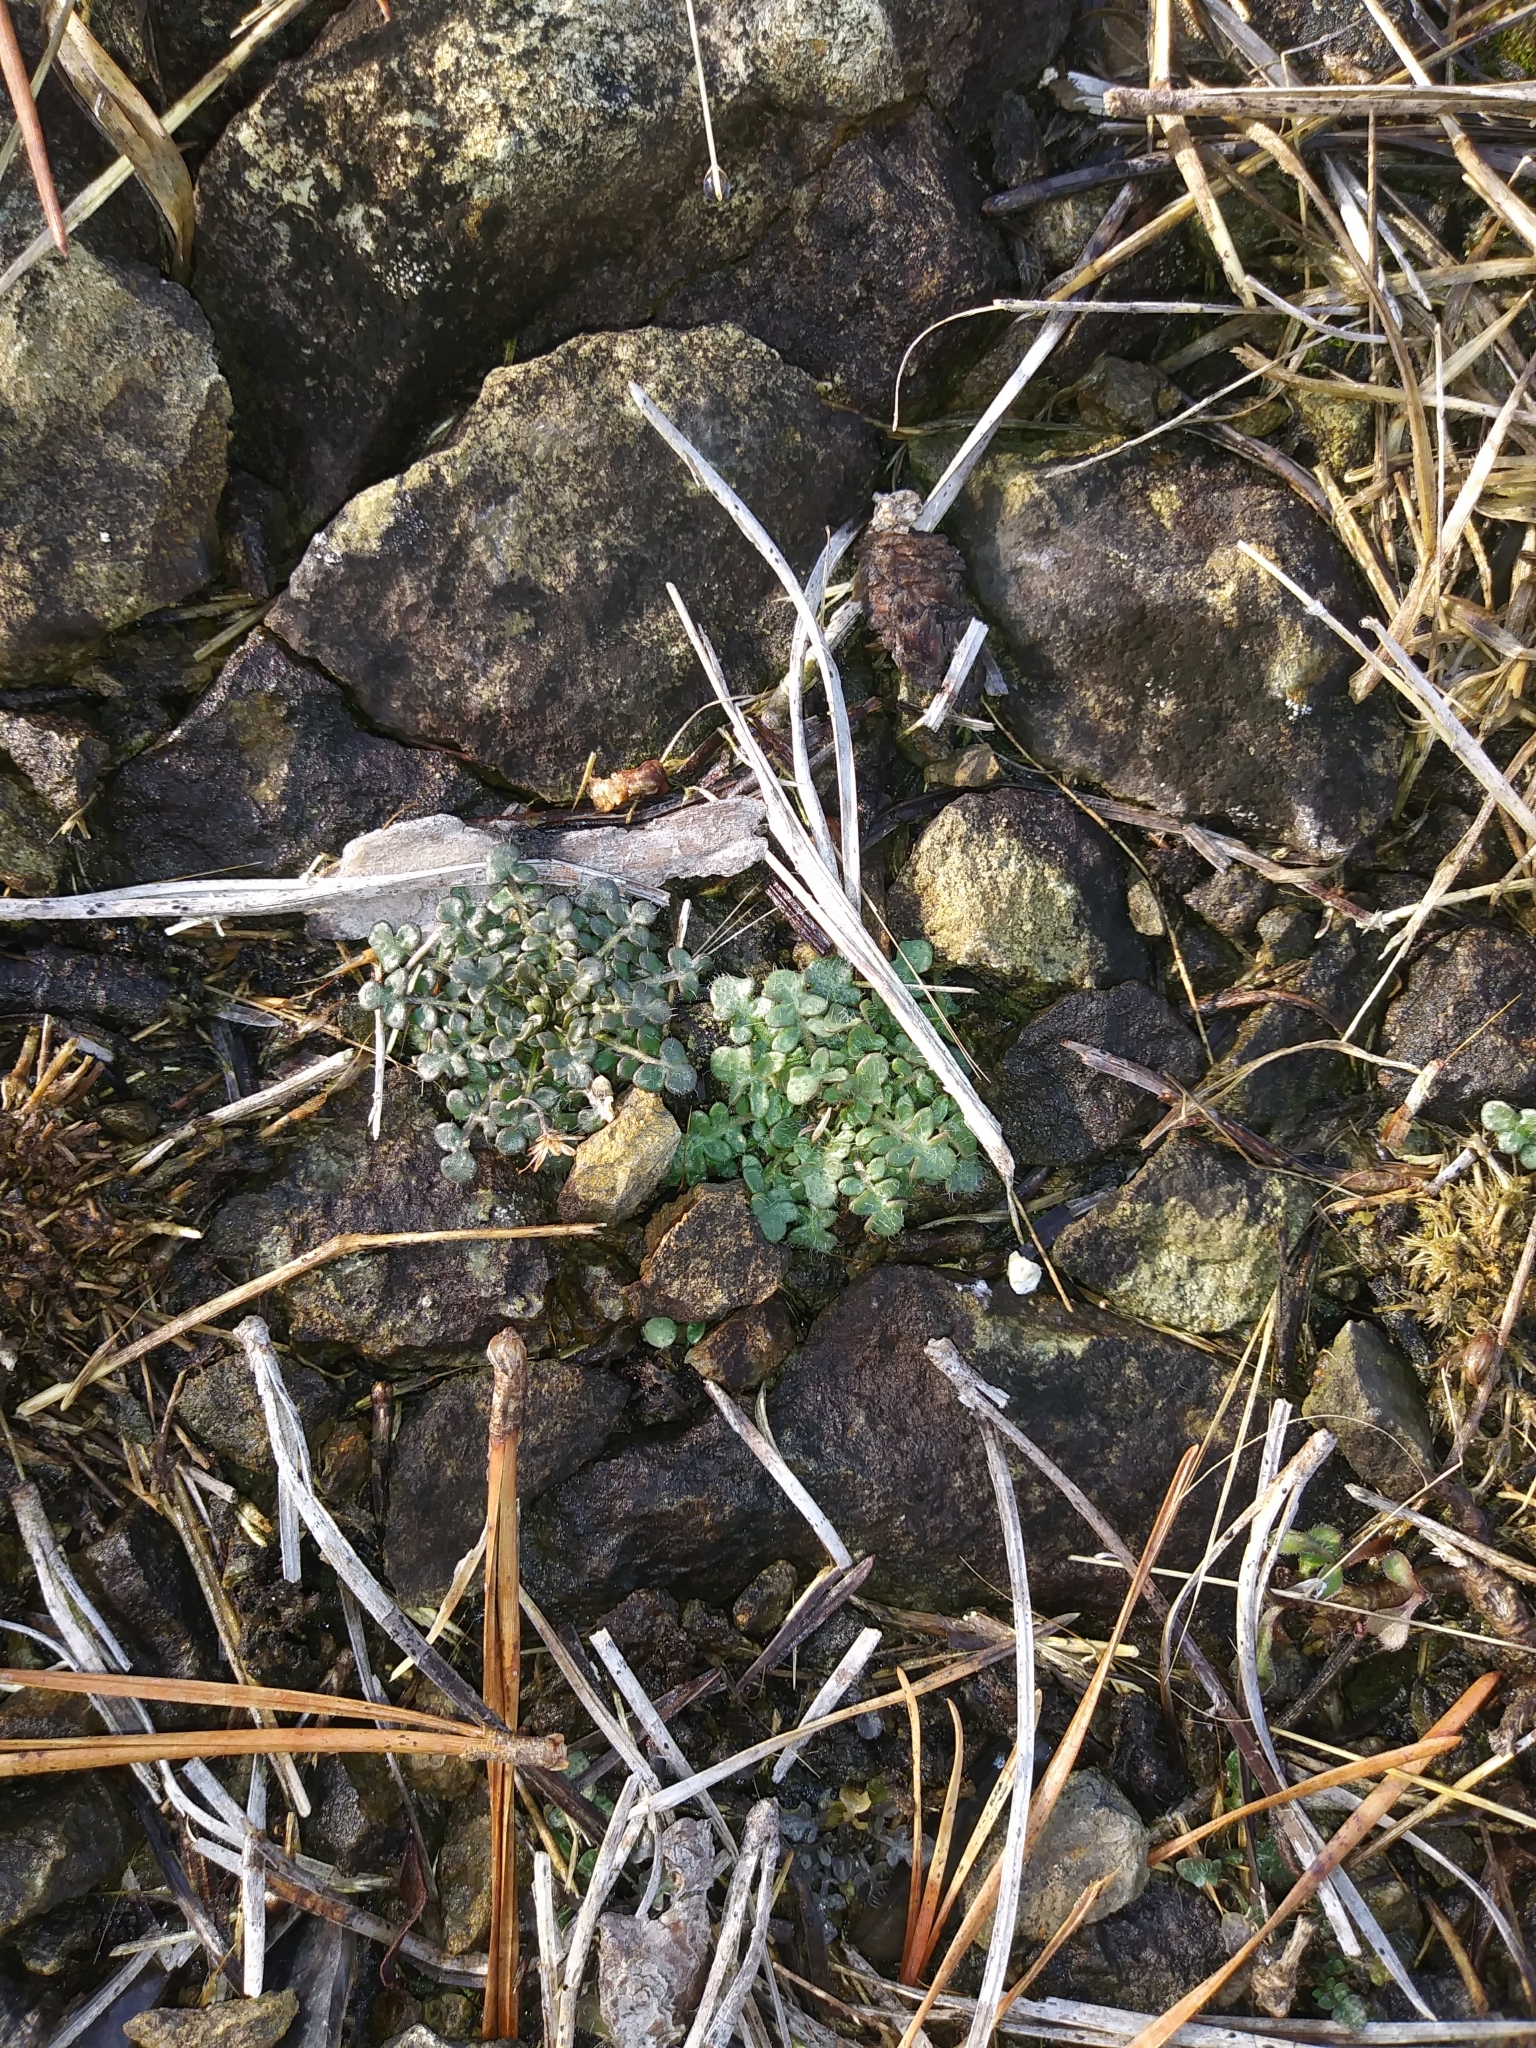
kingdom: Plantae
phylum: Tracheophyta
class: Magnoliopsida
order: Brassicales
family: Brassicaceae
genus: Arabidopsis
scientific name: Arabidopsis lyrata
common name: Lyrate rockcress
